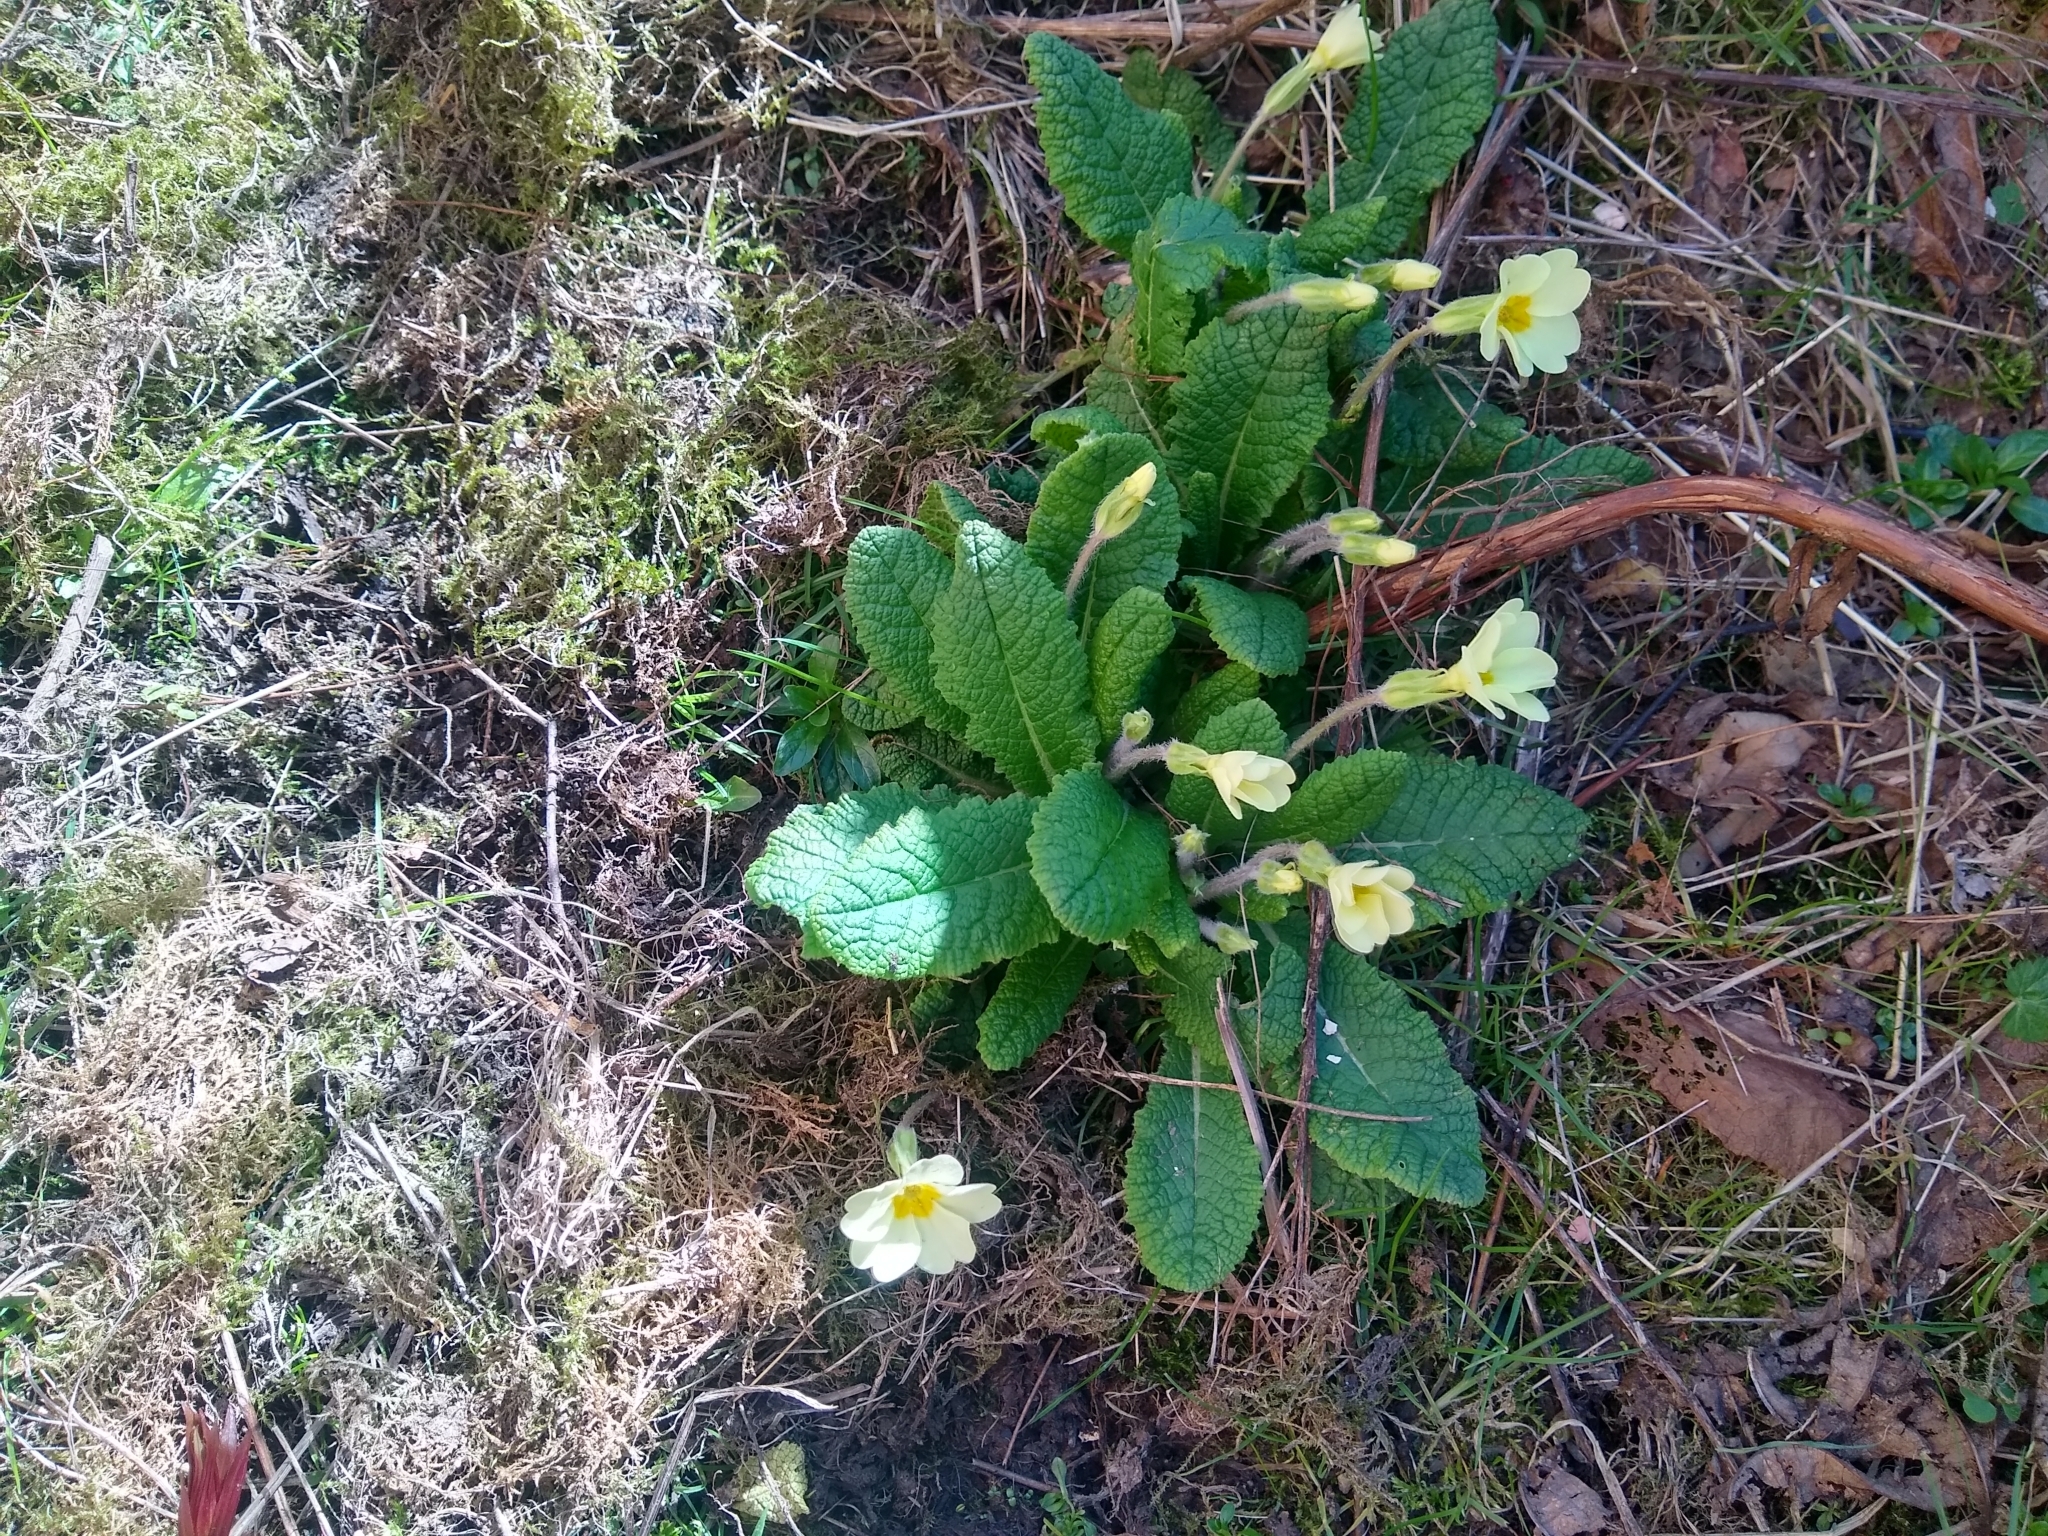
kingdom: Plantae
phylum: Tracheophyta
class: Magnoliopsida
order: Ericales
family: Primulaceae
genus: Primula
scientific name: Primula vulgaris
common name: Primrose
